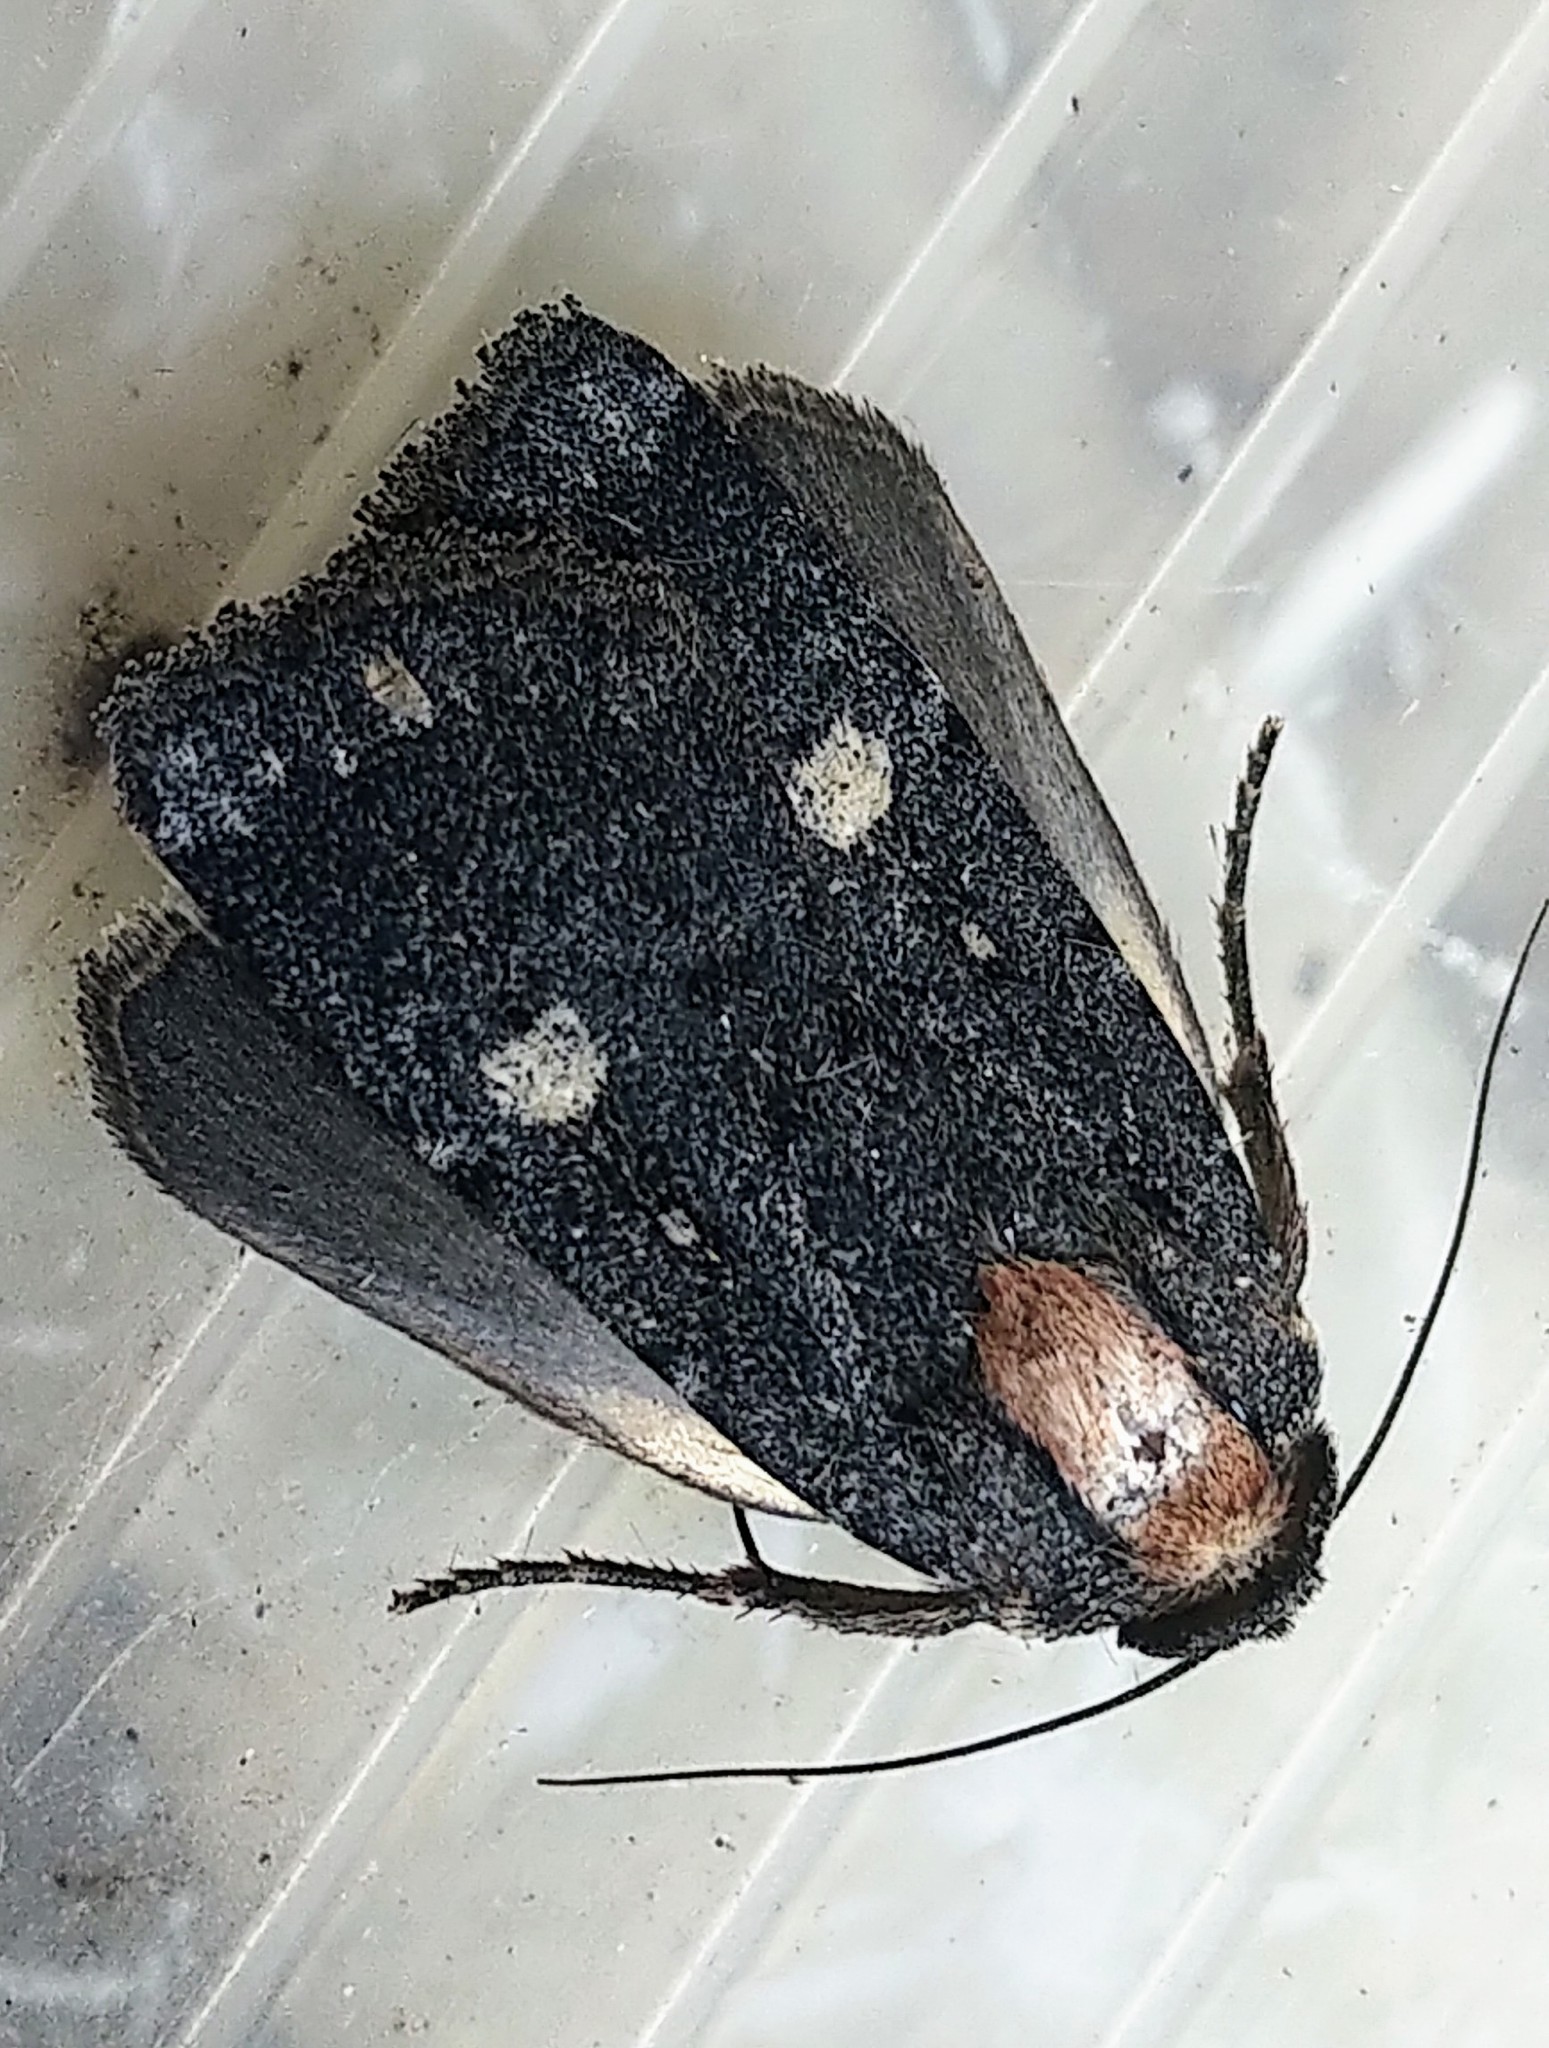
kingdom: Animalia
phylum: Arthropoda
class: Insecta
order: Lepidoptera
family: Noctuidae
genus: Abagrotis
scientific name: Abagrotis mirabilis
